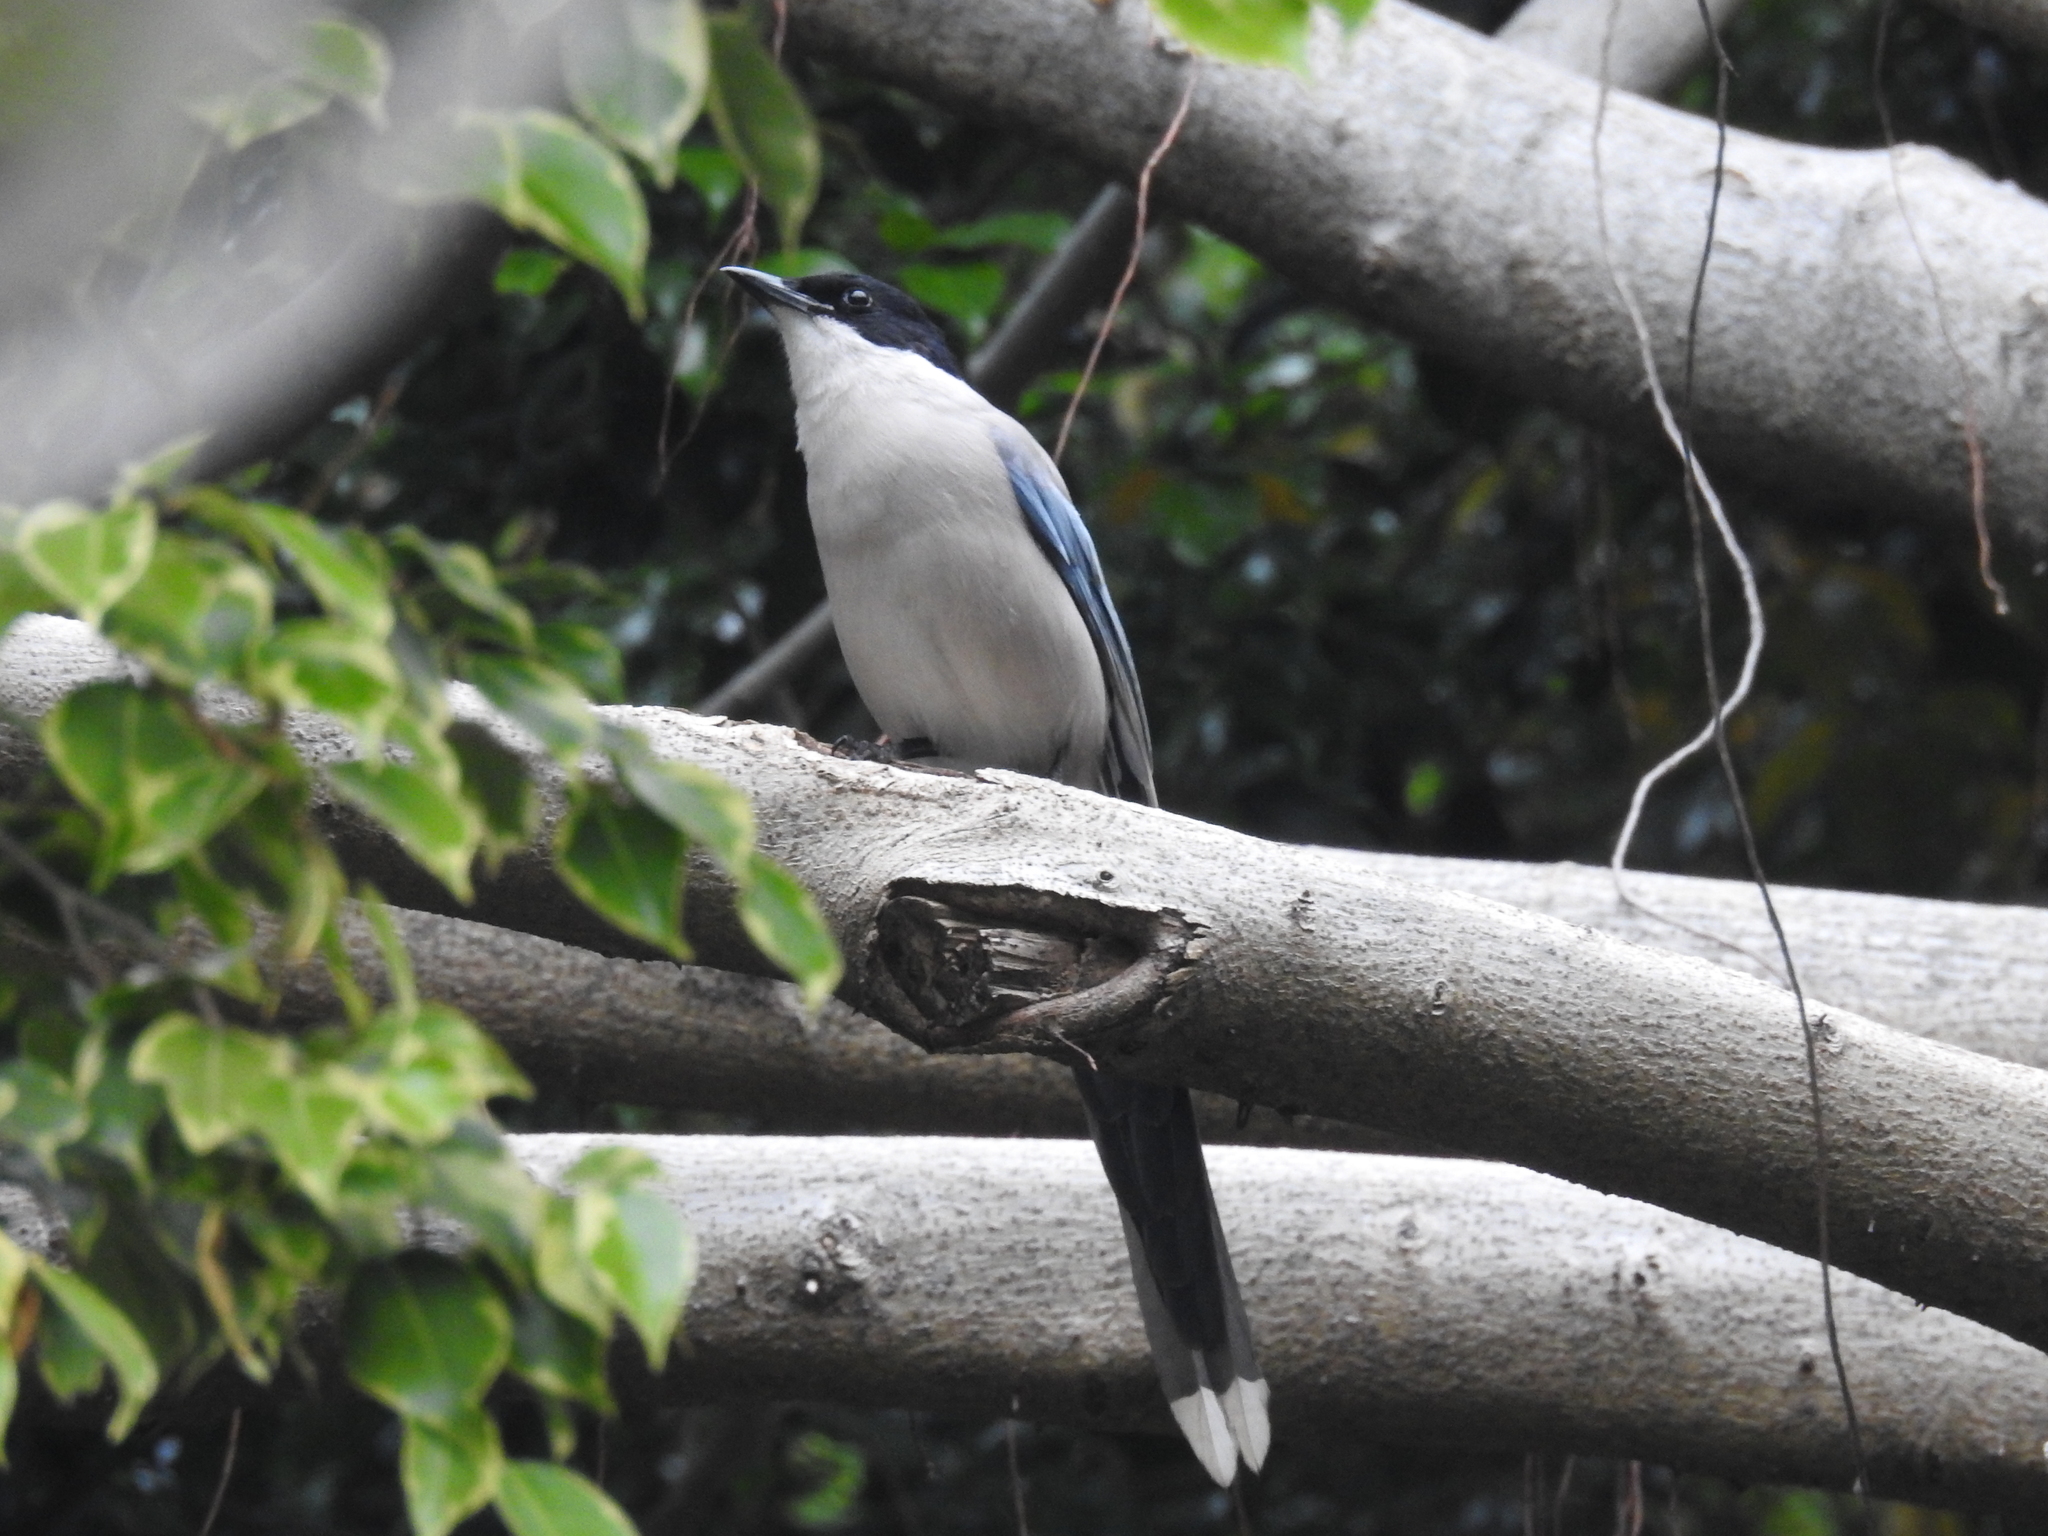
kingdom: Animalia
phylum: Chordata
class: Aves
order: Passeriformes
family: Corvidae
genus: Cyanopica
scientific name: Cyanopica cyanus
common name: Azure-winged magpie
